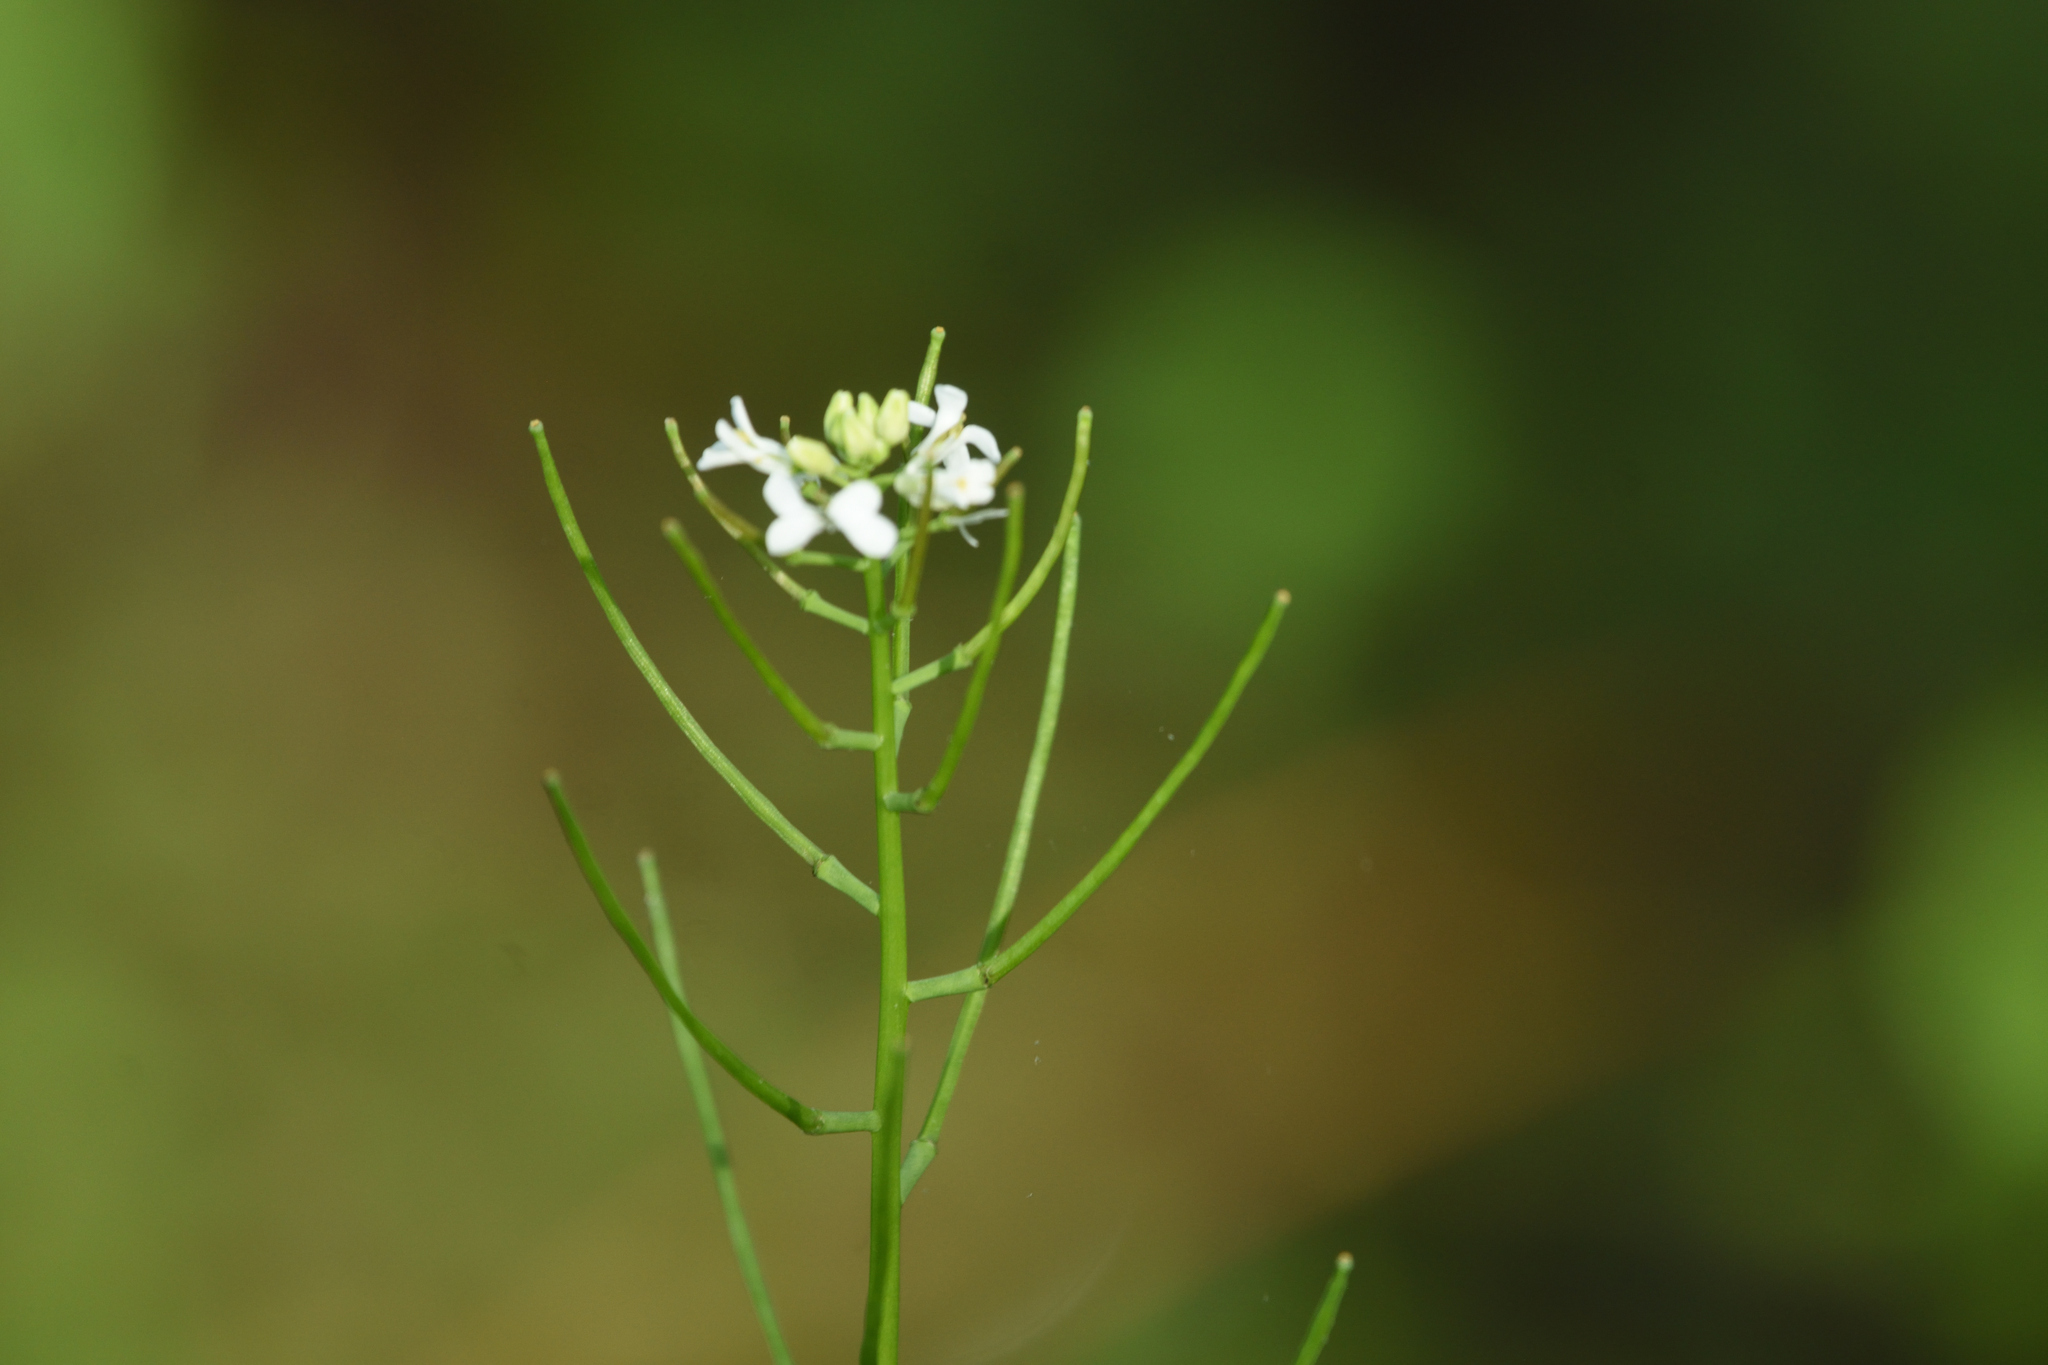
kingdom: Plantae
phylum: Tracheophyta
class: Magnoliopsida
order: Brassicales
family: Brassicaceae
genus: Alliaria
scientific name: Alliaria petiolata
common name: Garlic mustard
